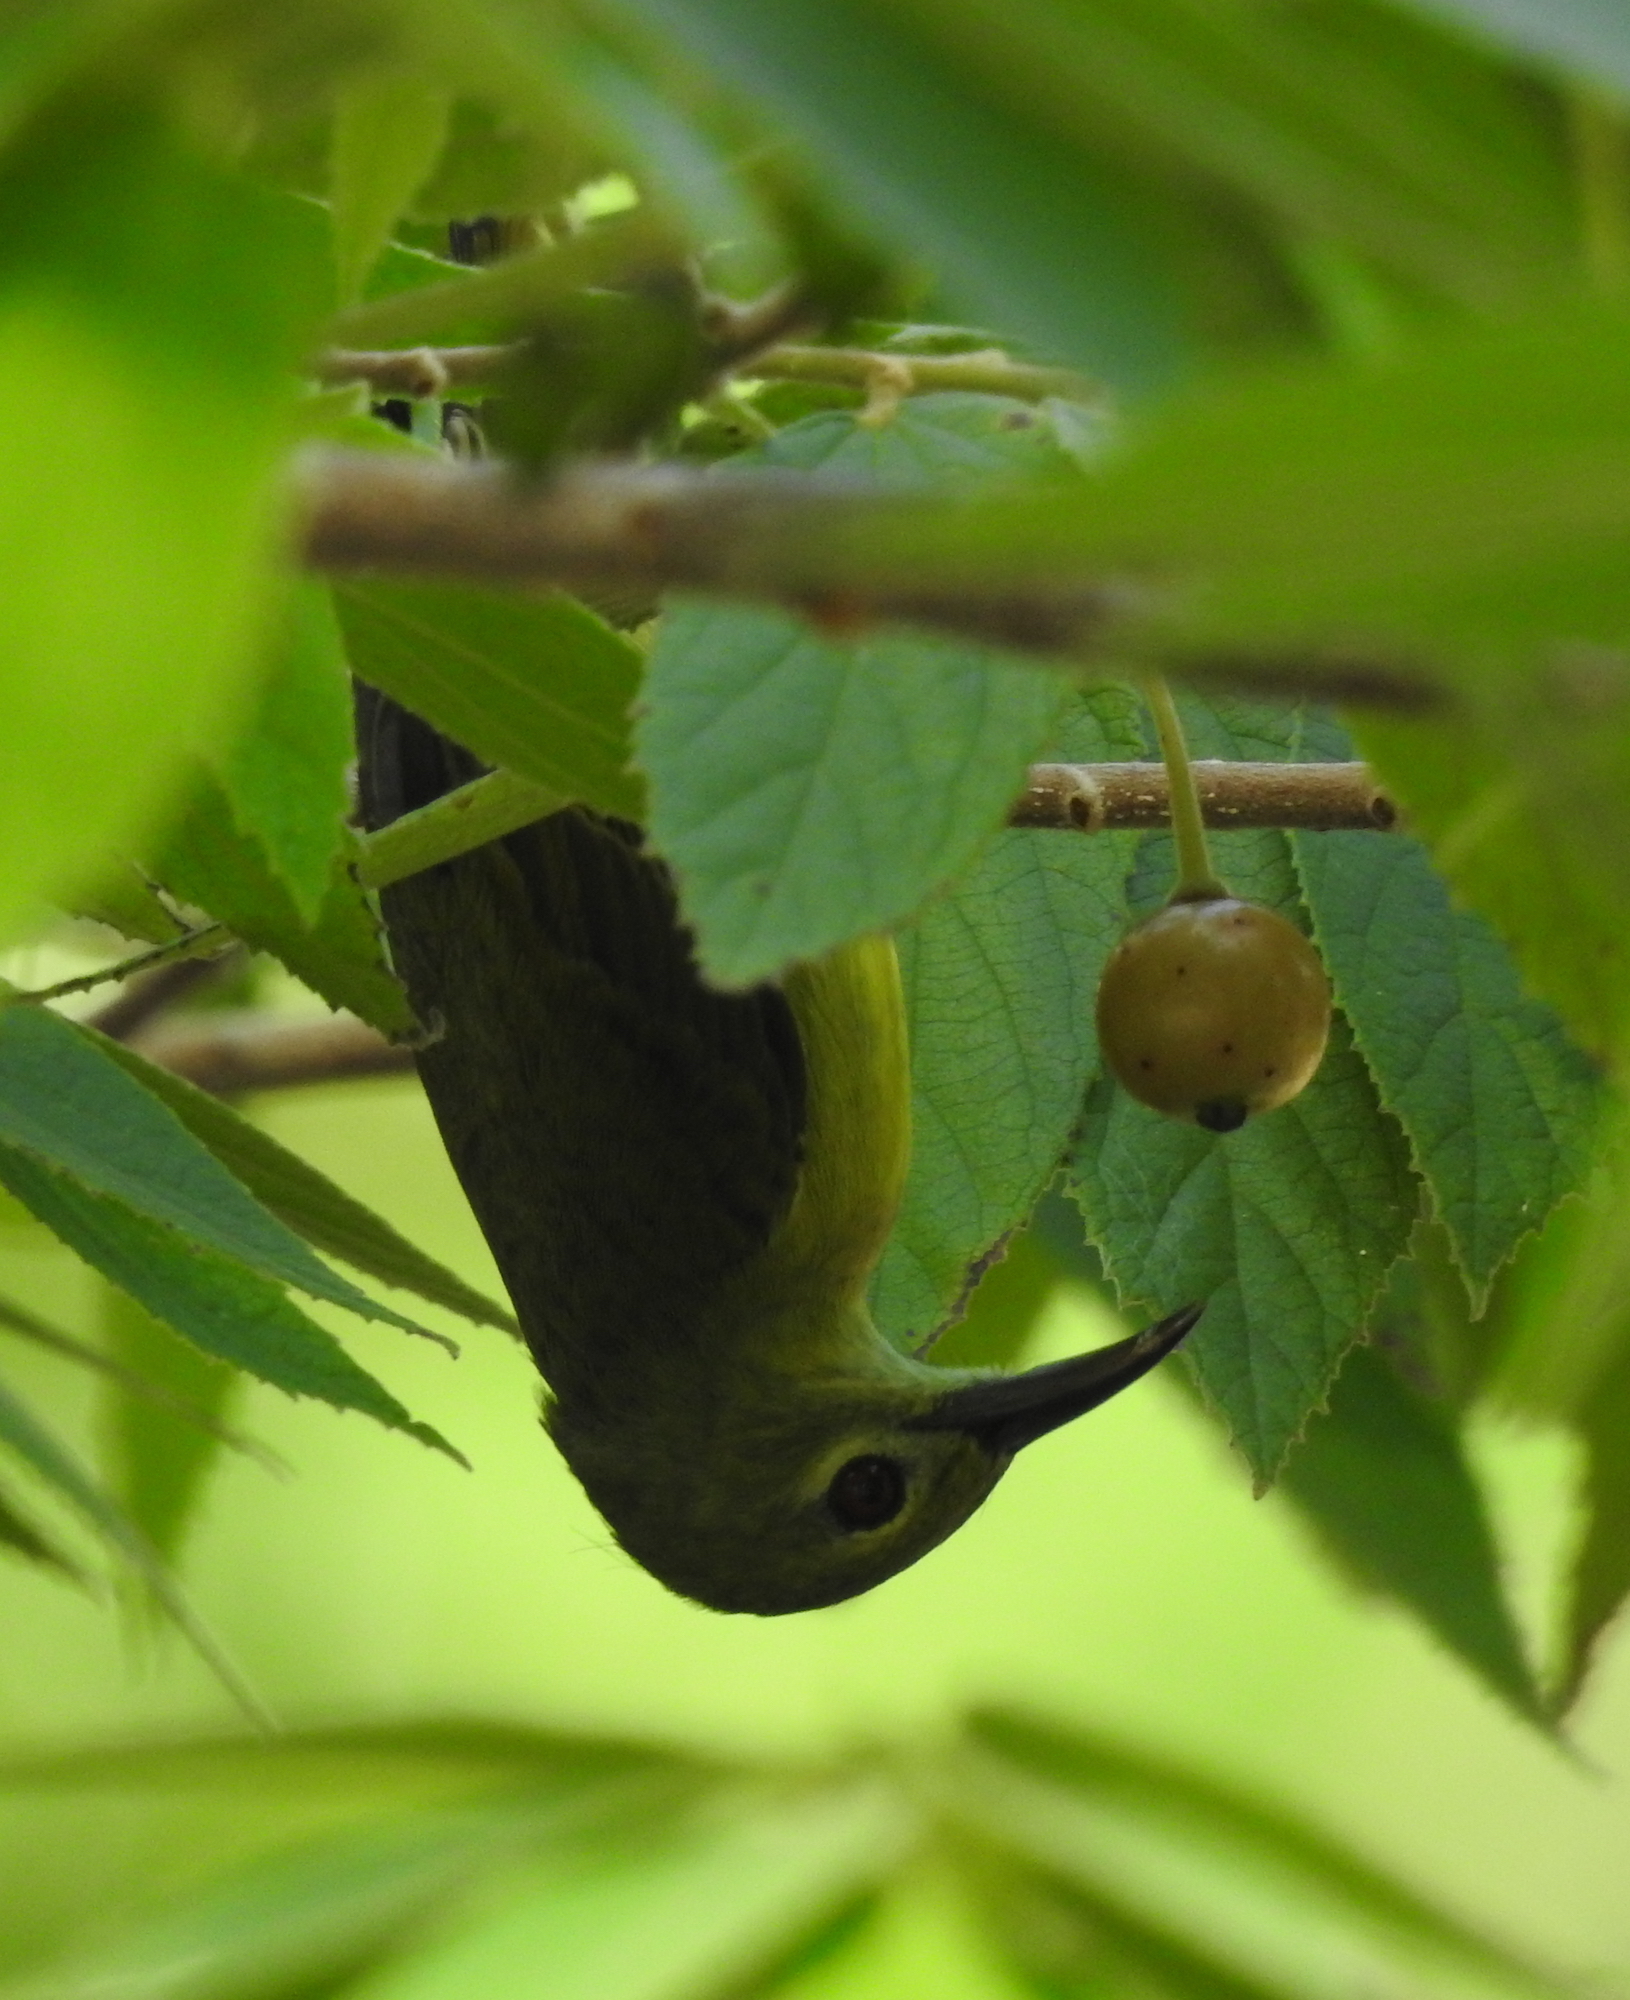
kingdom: Animalia
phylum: Chordata
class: Aves
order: Passeriformes
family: Nectariniidae
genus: Anthreptes
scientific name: Anthreptes malacensis
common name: Brown-throated sunbird
